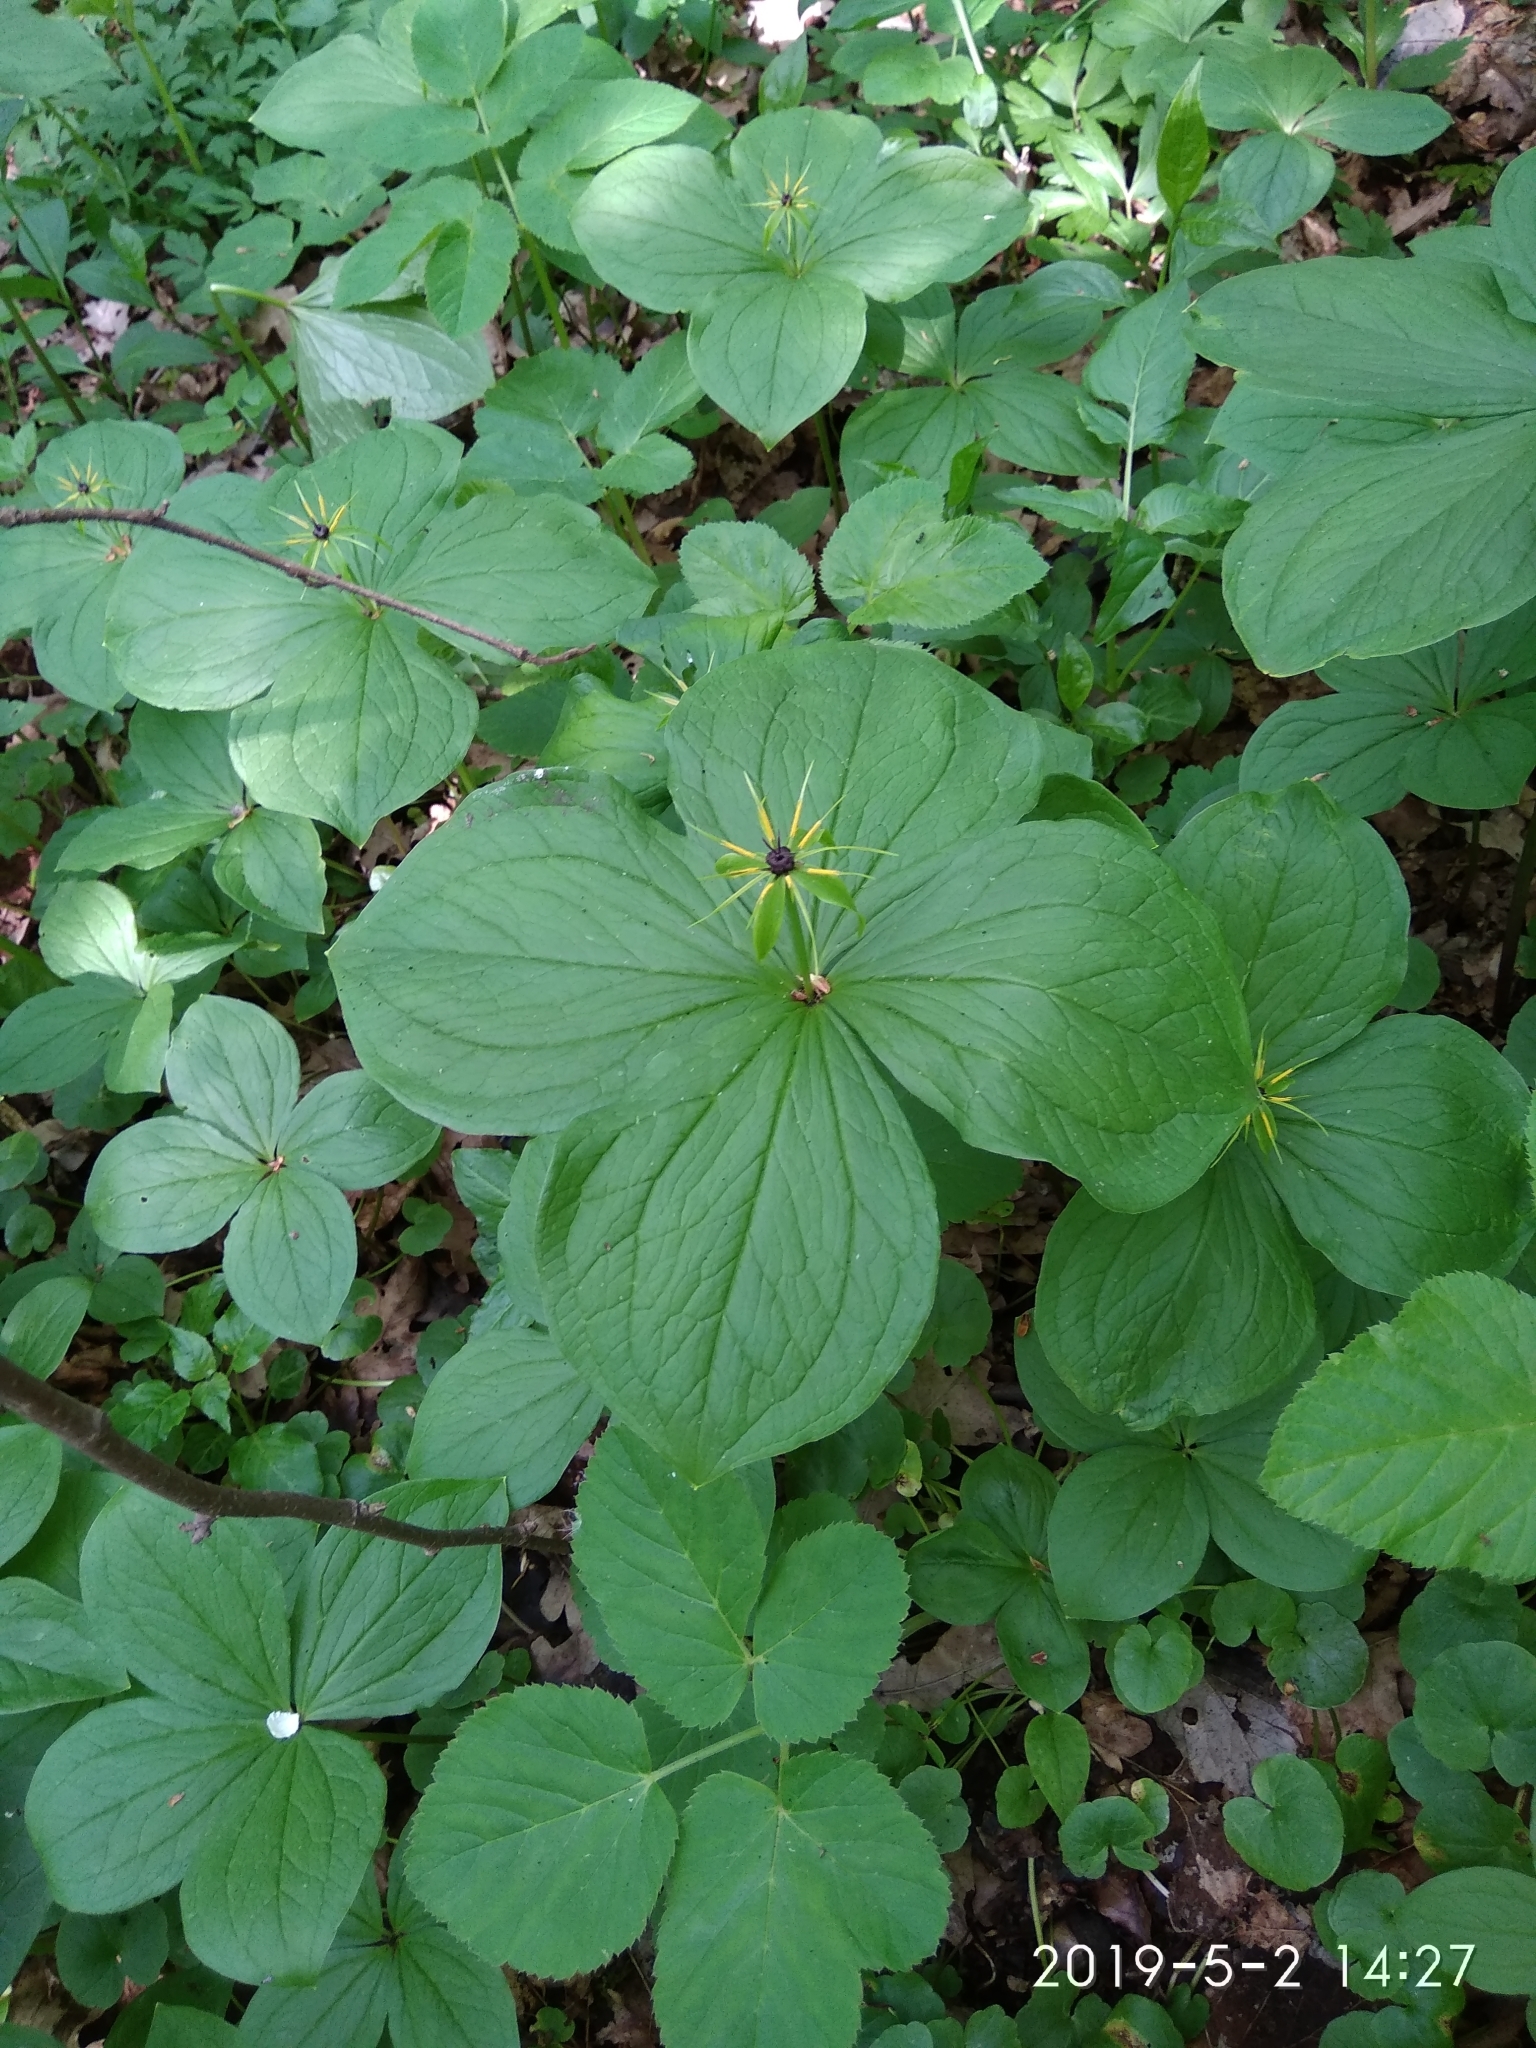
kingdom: Plantae
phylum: Tracheophyta
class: Liliopsida
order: Liliales
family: Melanthiaceae
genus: Paris
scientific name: Paris quadrifolia
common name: Herb-paris
